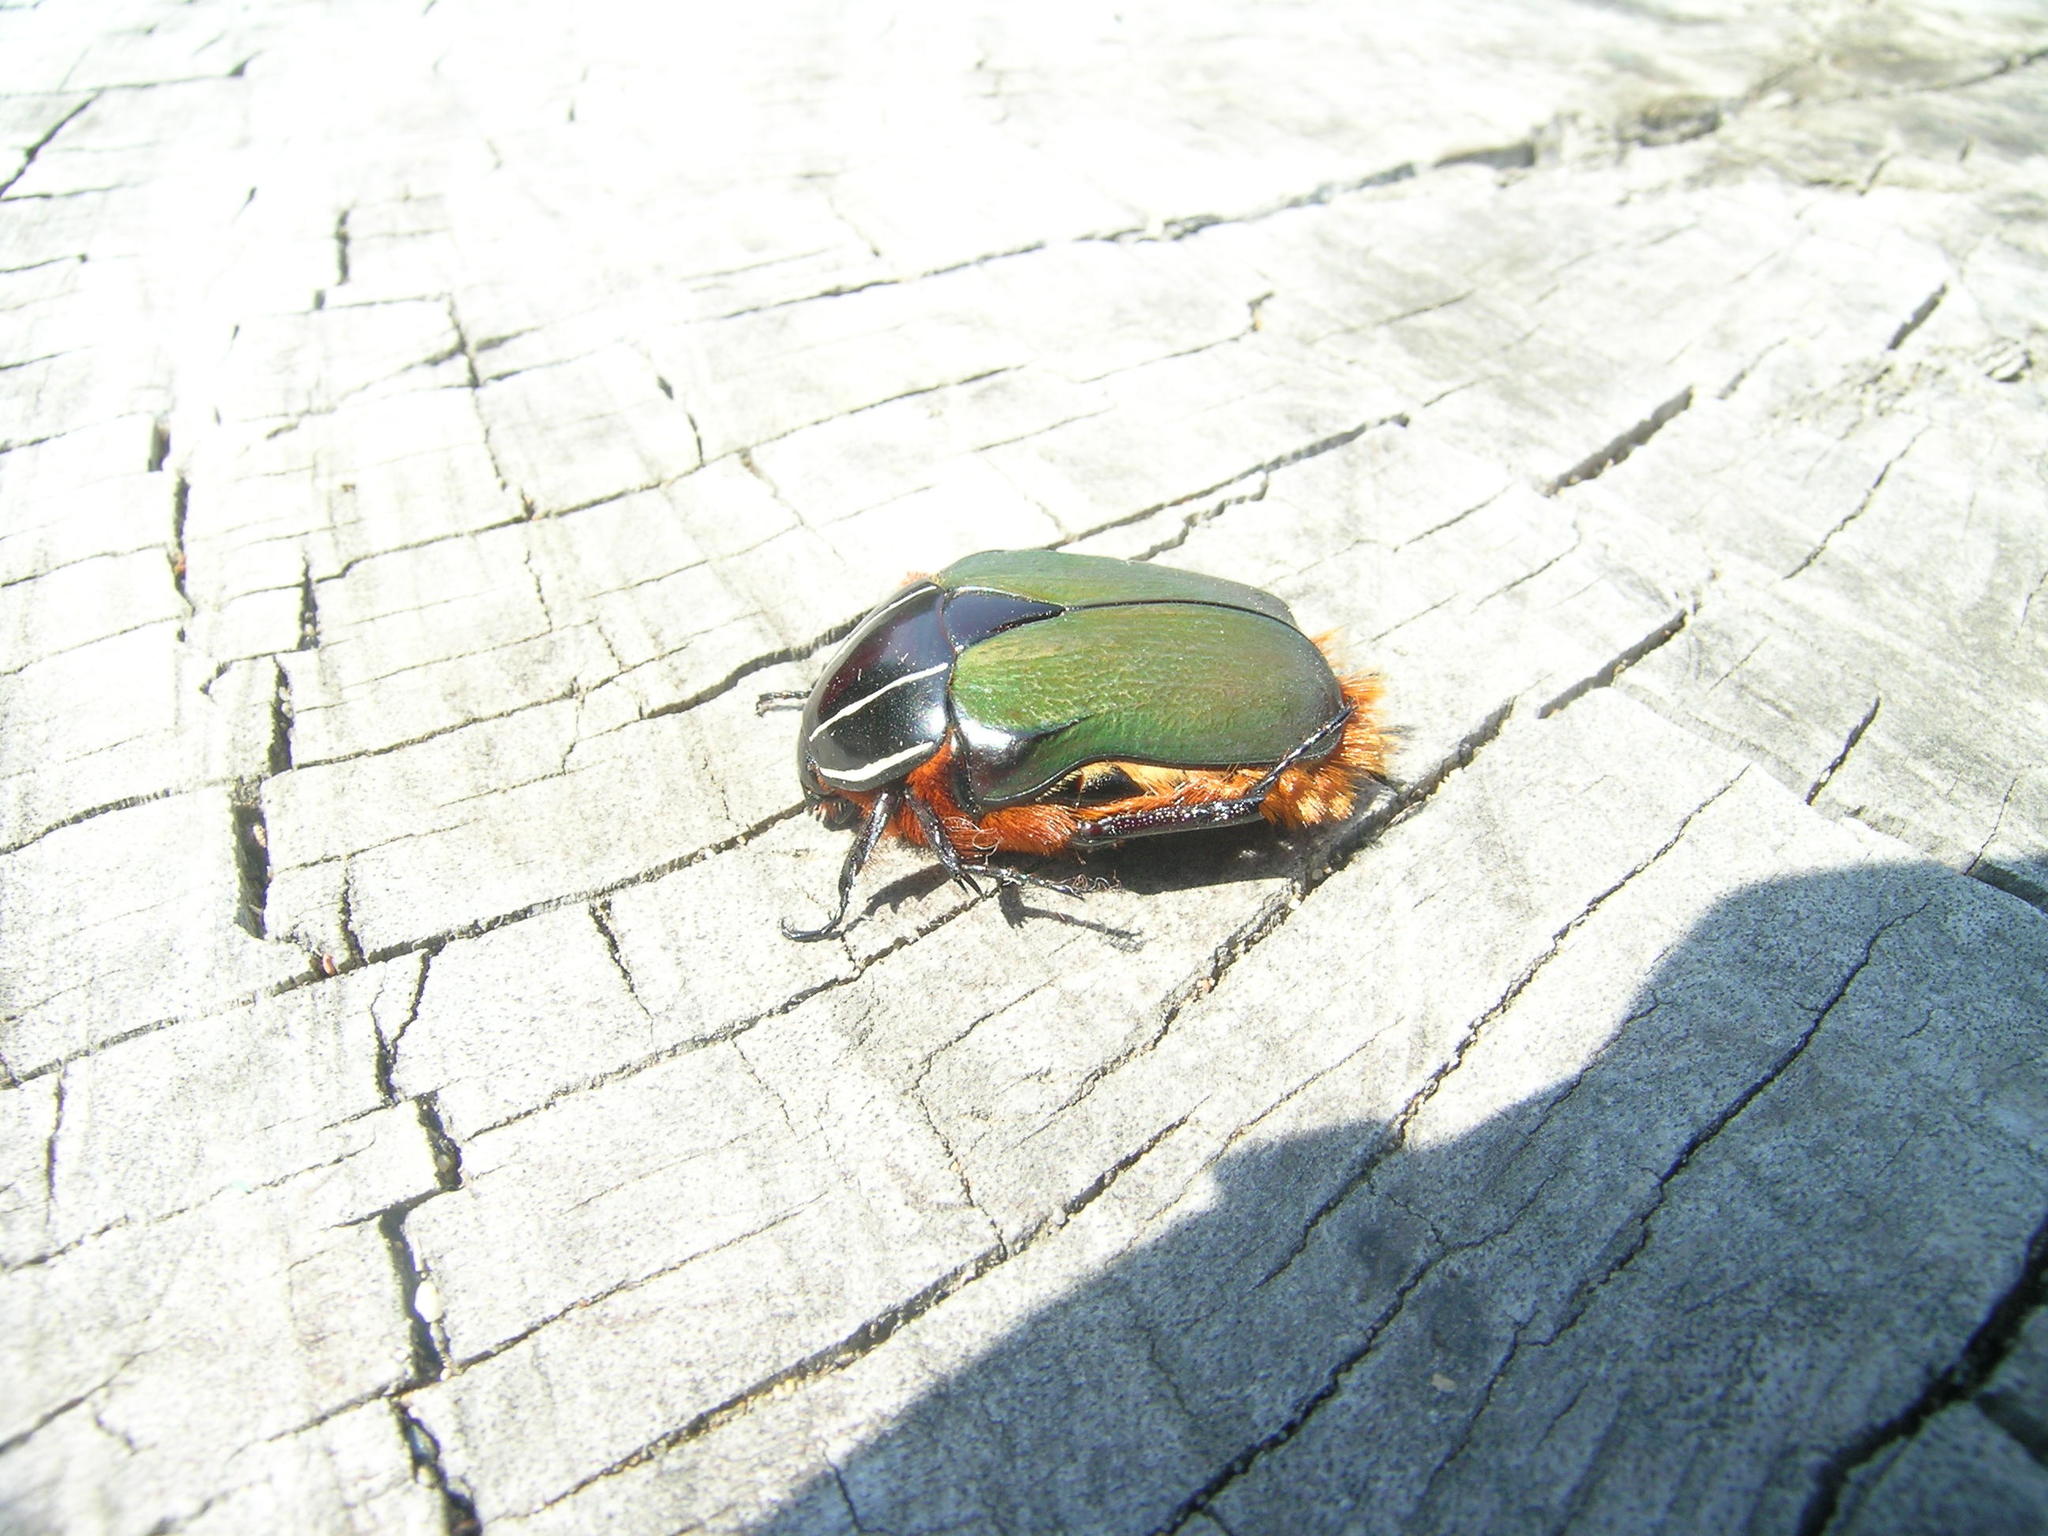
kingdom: Animalia
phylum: Arthropoda
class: Insecta
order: Coleoptera
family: Scarabaeidae
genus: Trichostetha
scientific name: Trichostetha fascicularis
